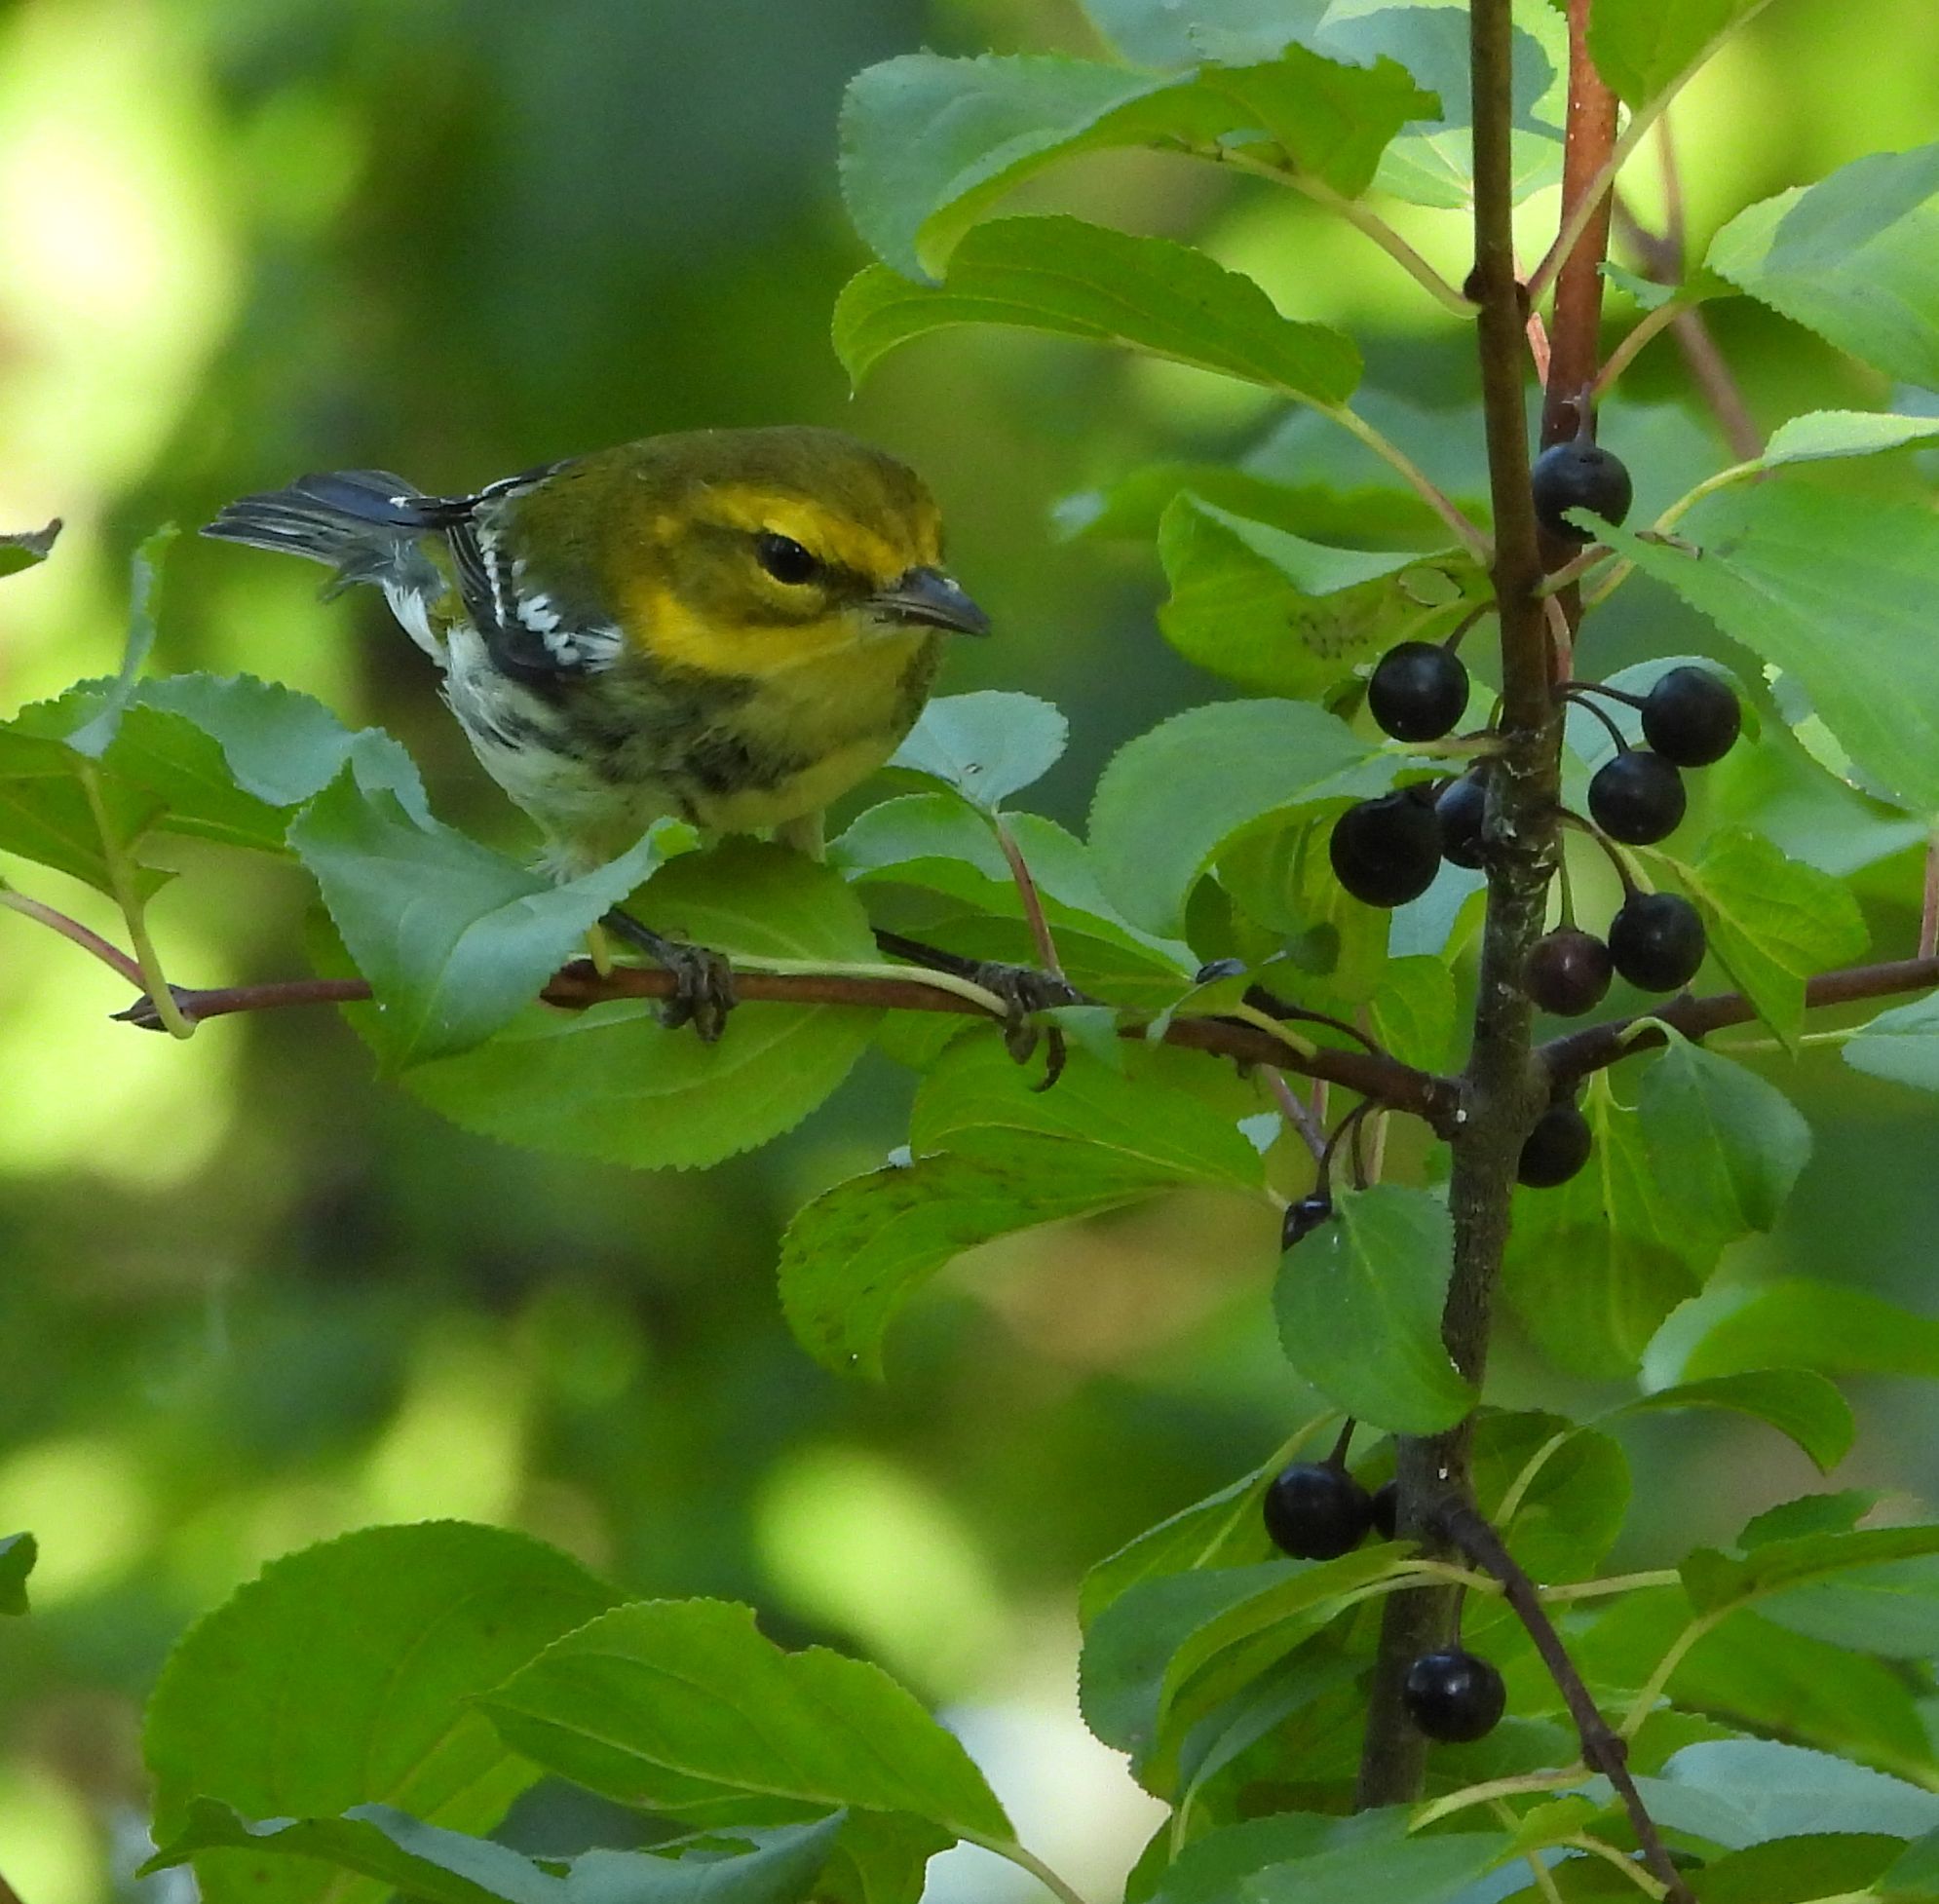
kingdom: Animalia
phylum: Chordata
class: Aves
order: Passeriformes
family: Parulidae
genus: Setophaga
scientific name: Setophaga virens
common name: Black-throated green warbler
